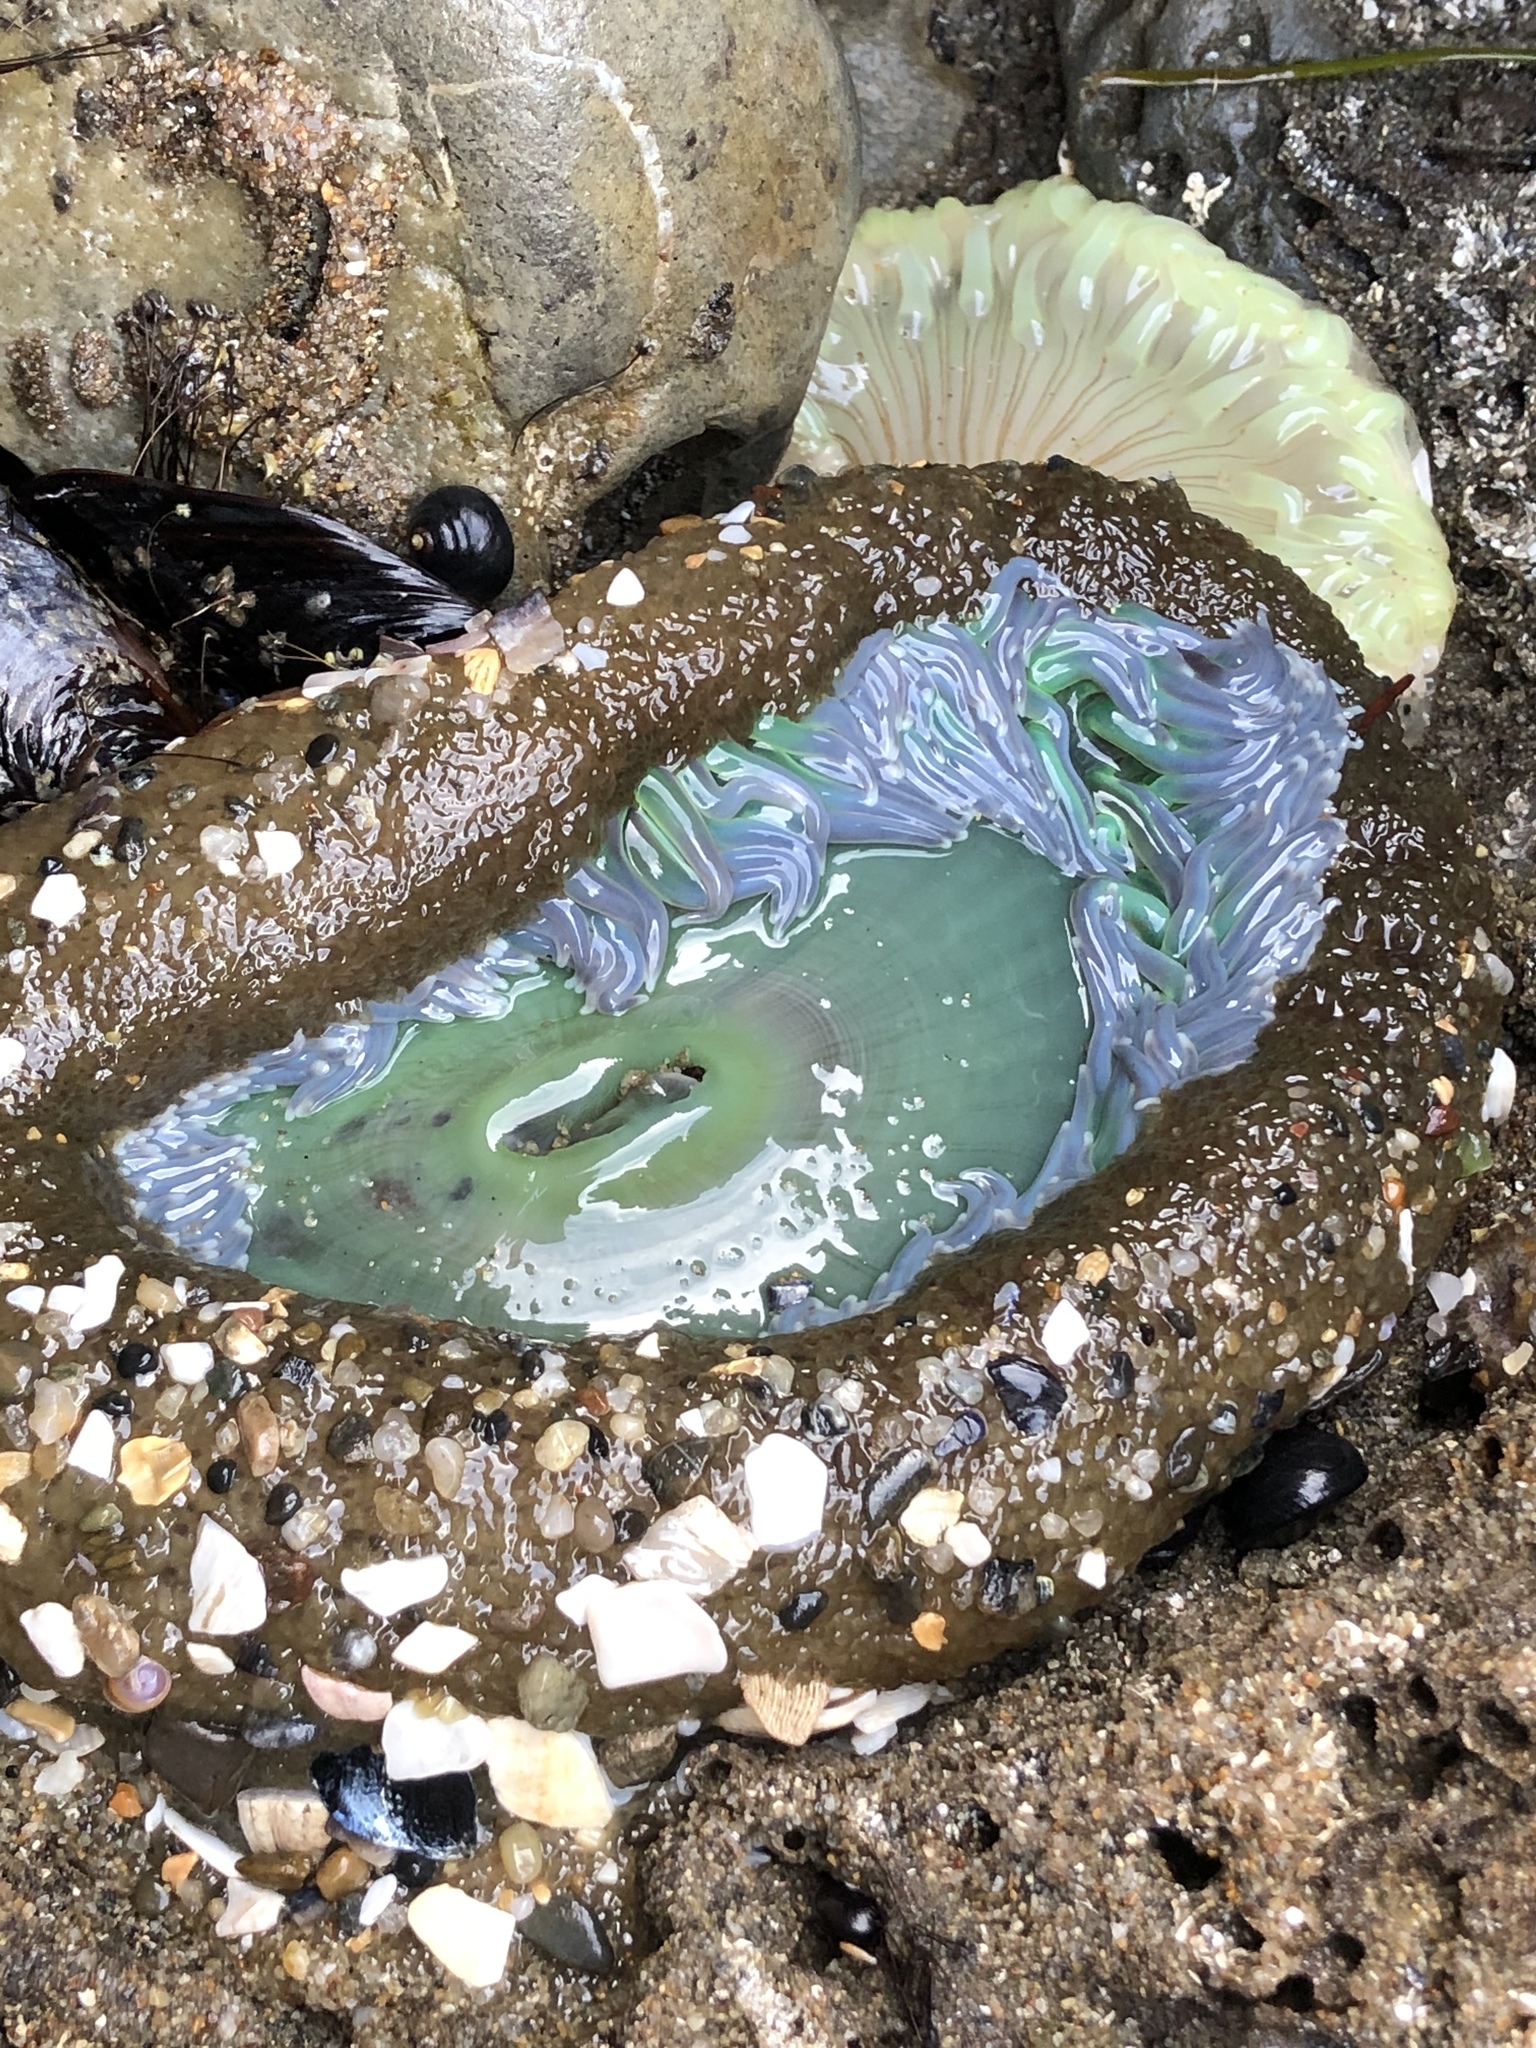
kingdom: Animalia
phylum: Cnidaria
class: Anthozoa
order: Actiniaria
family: Actiniidae
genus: Anthopleura
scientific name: Anthopleura xanthogrammica
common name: Giant green anemone
